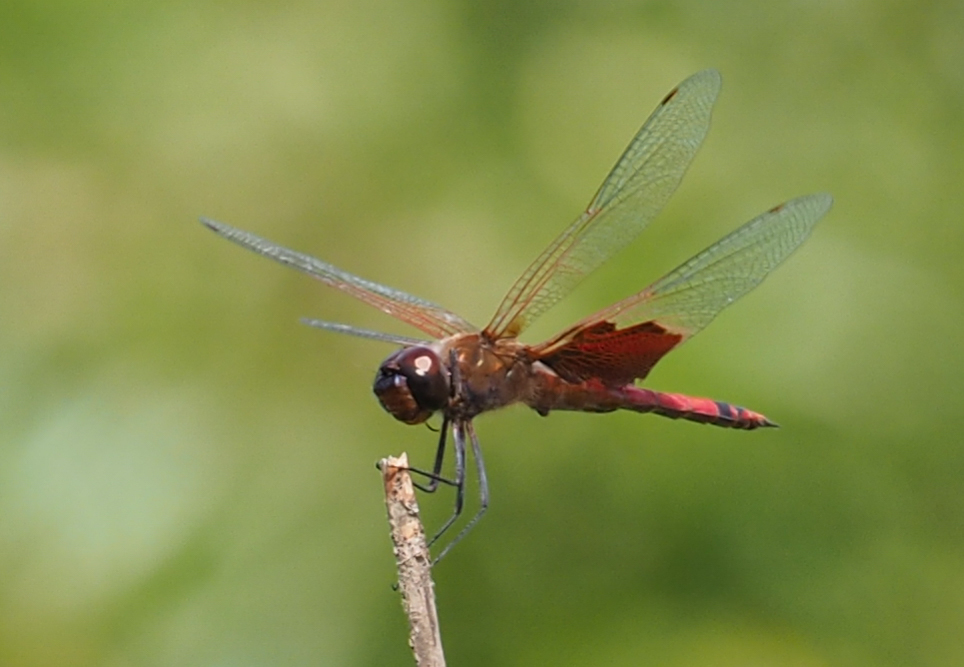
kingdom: Animalia
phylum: Arthropoda
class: Insecta
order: Odonata
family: Libellulidae
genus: Tramea
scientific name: Tramea carolina
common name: Carolina saddlebags
